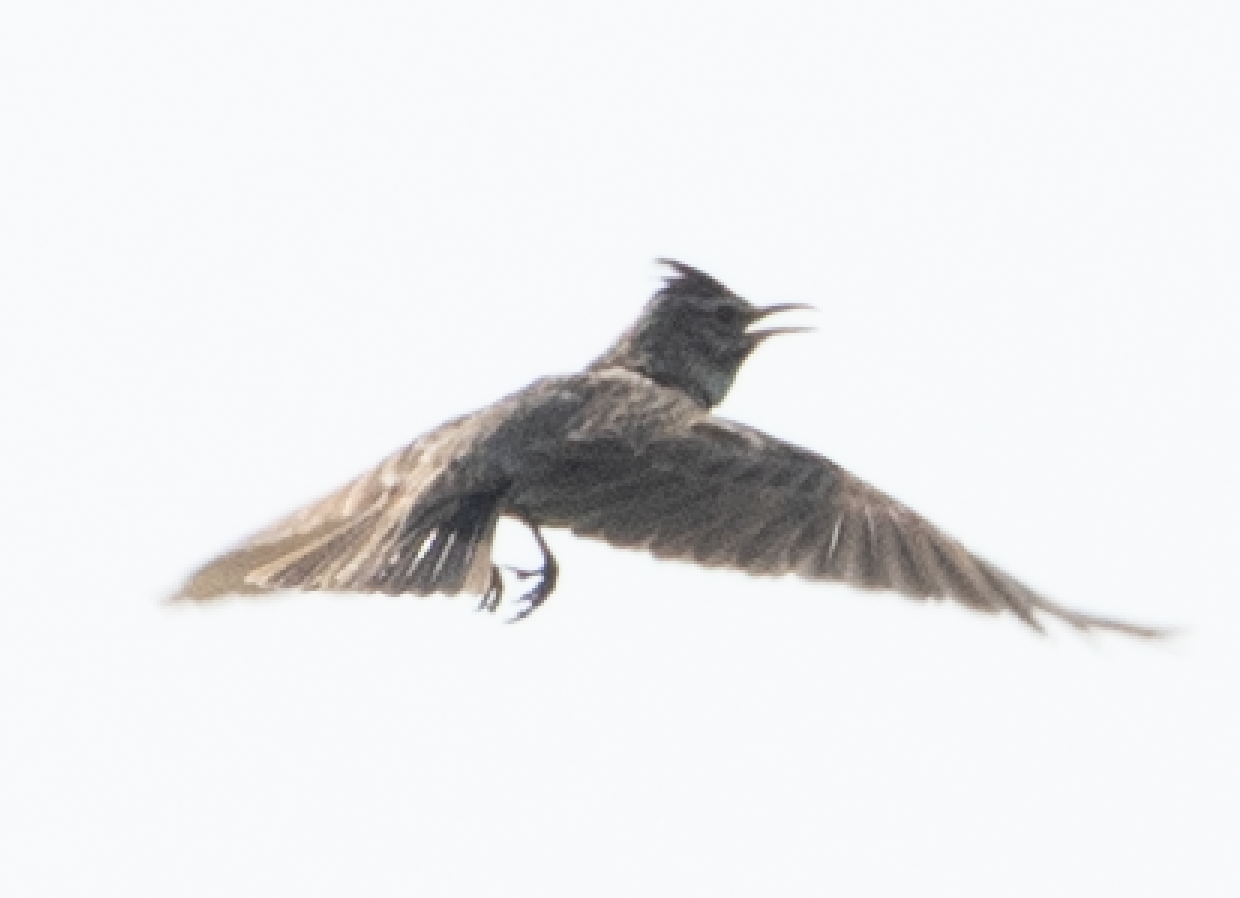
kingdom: Animalia
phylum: Chordata
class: Aves
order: Passeriformes
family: Alaudidae
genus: Galerida
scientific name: Galerida cristata
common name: Crested lark
